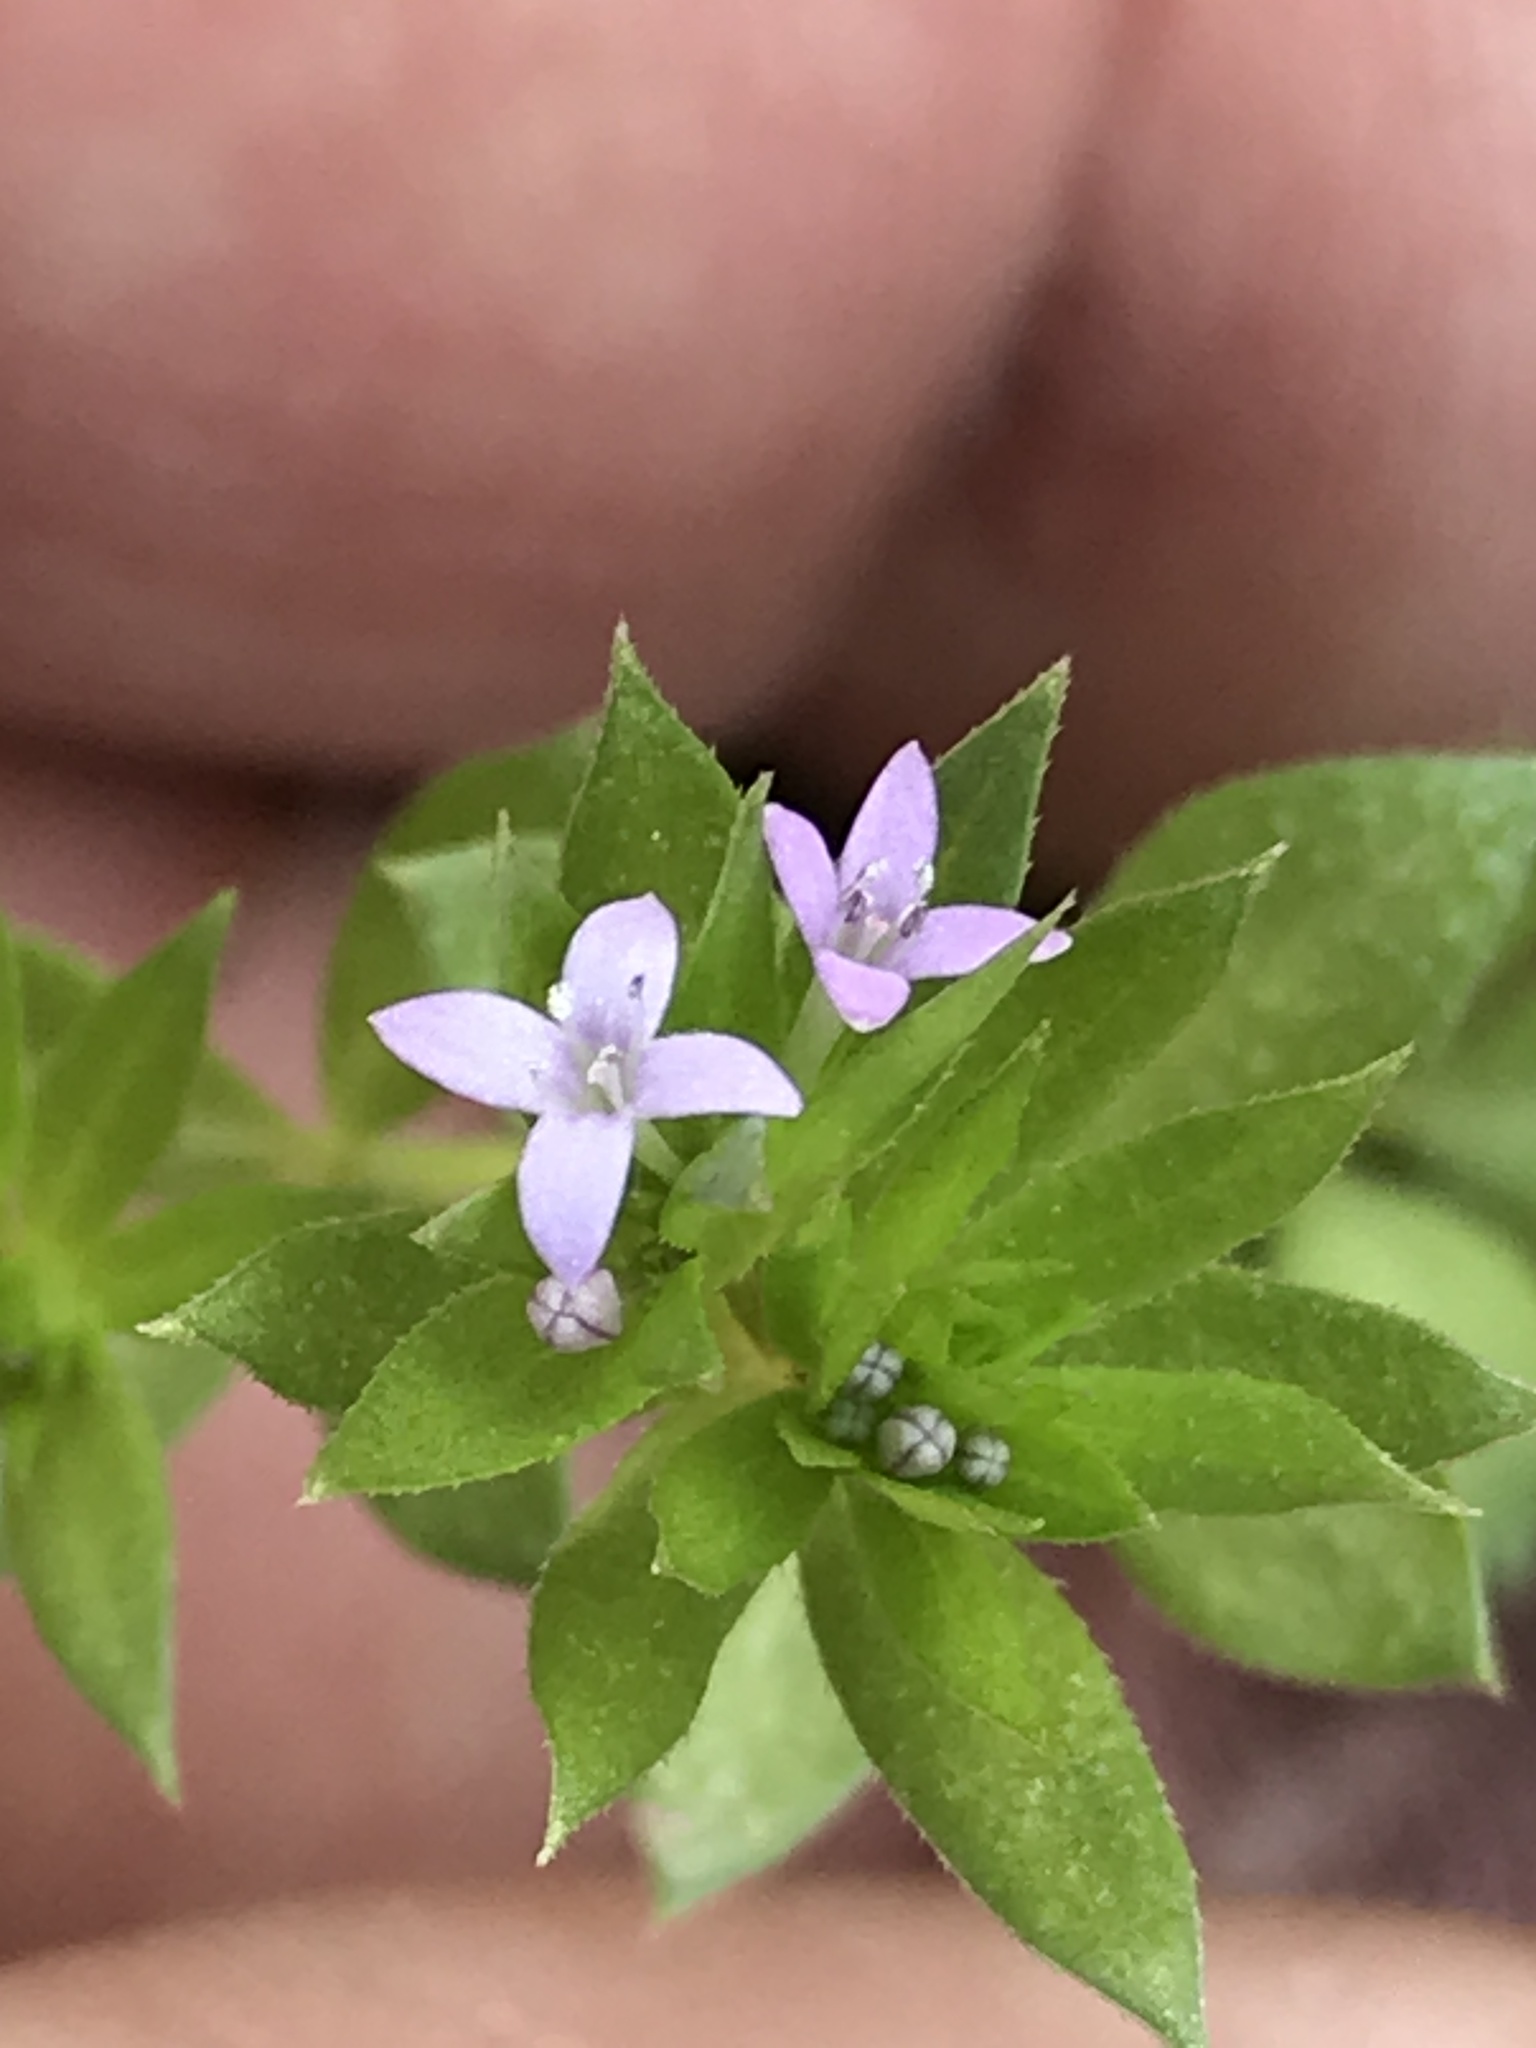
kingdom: Plantae
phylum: Tracheophyta
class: Magnoliopsida
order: Gentianales
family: Rubiaceae
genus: Sherardia
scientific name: Sherardia arvensis
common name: Field madder
